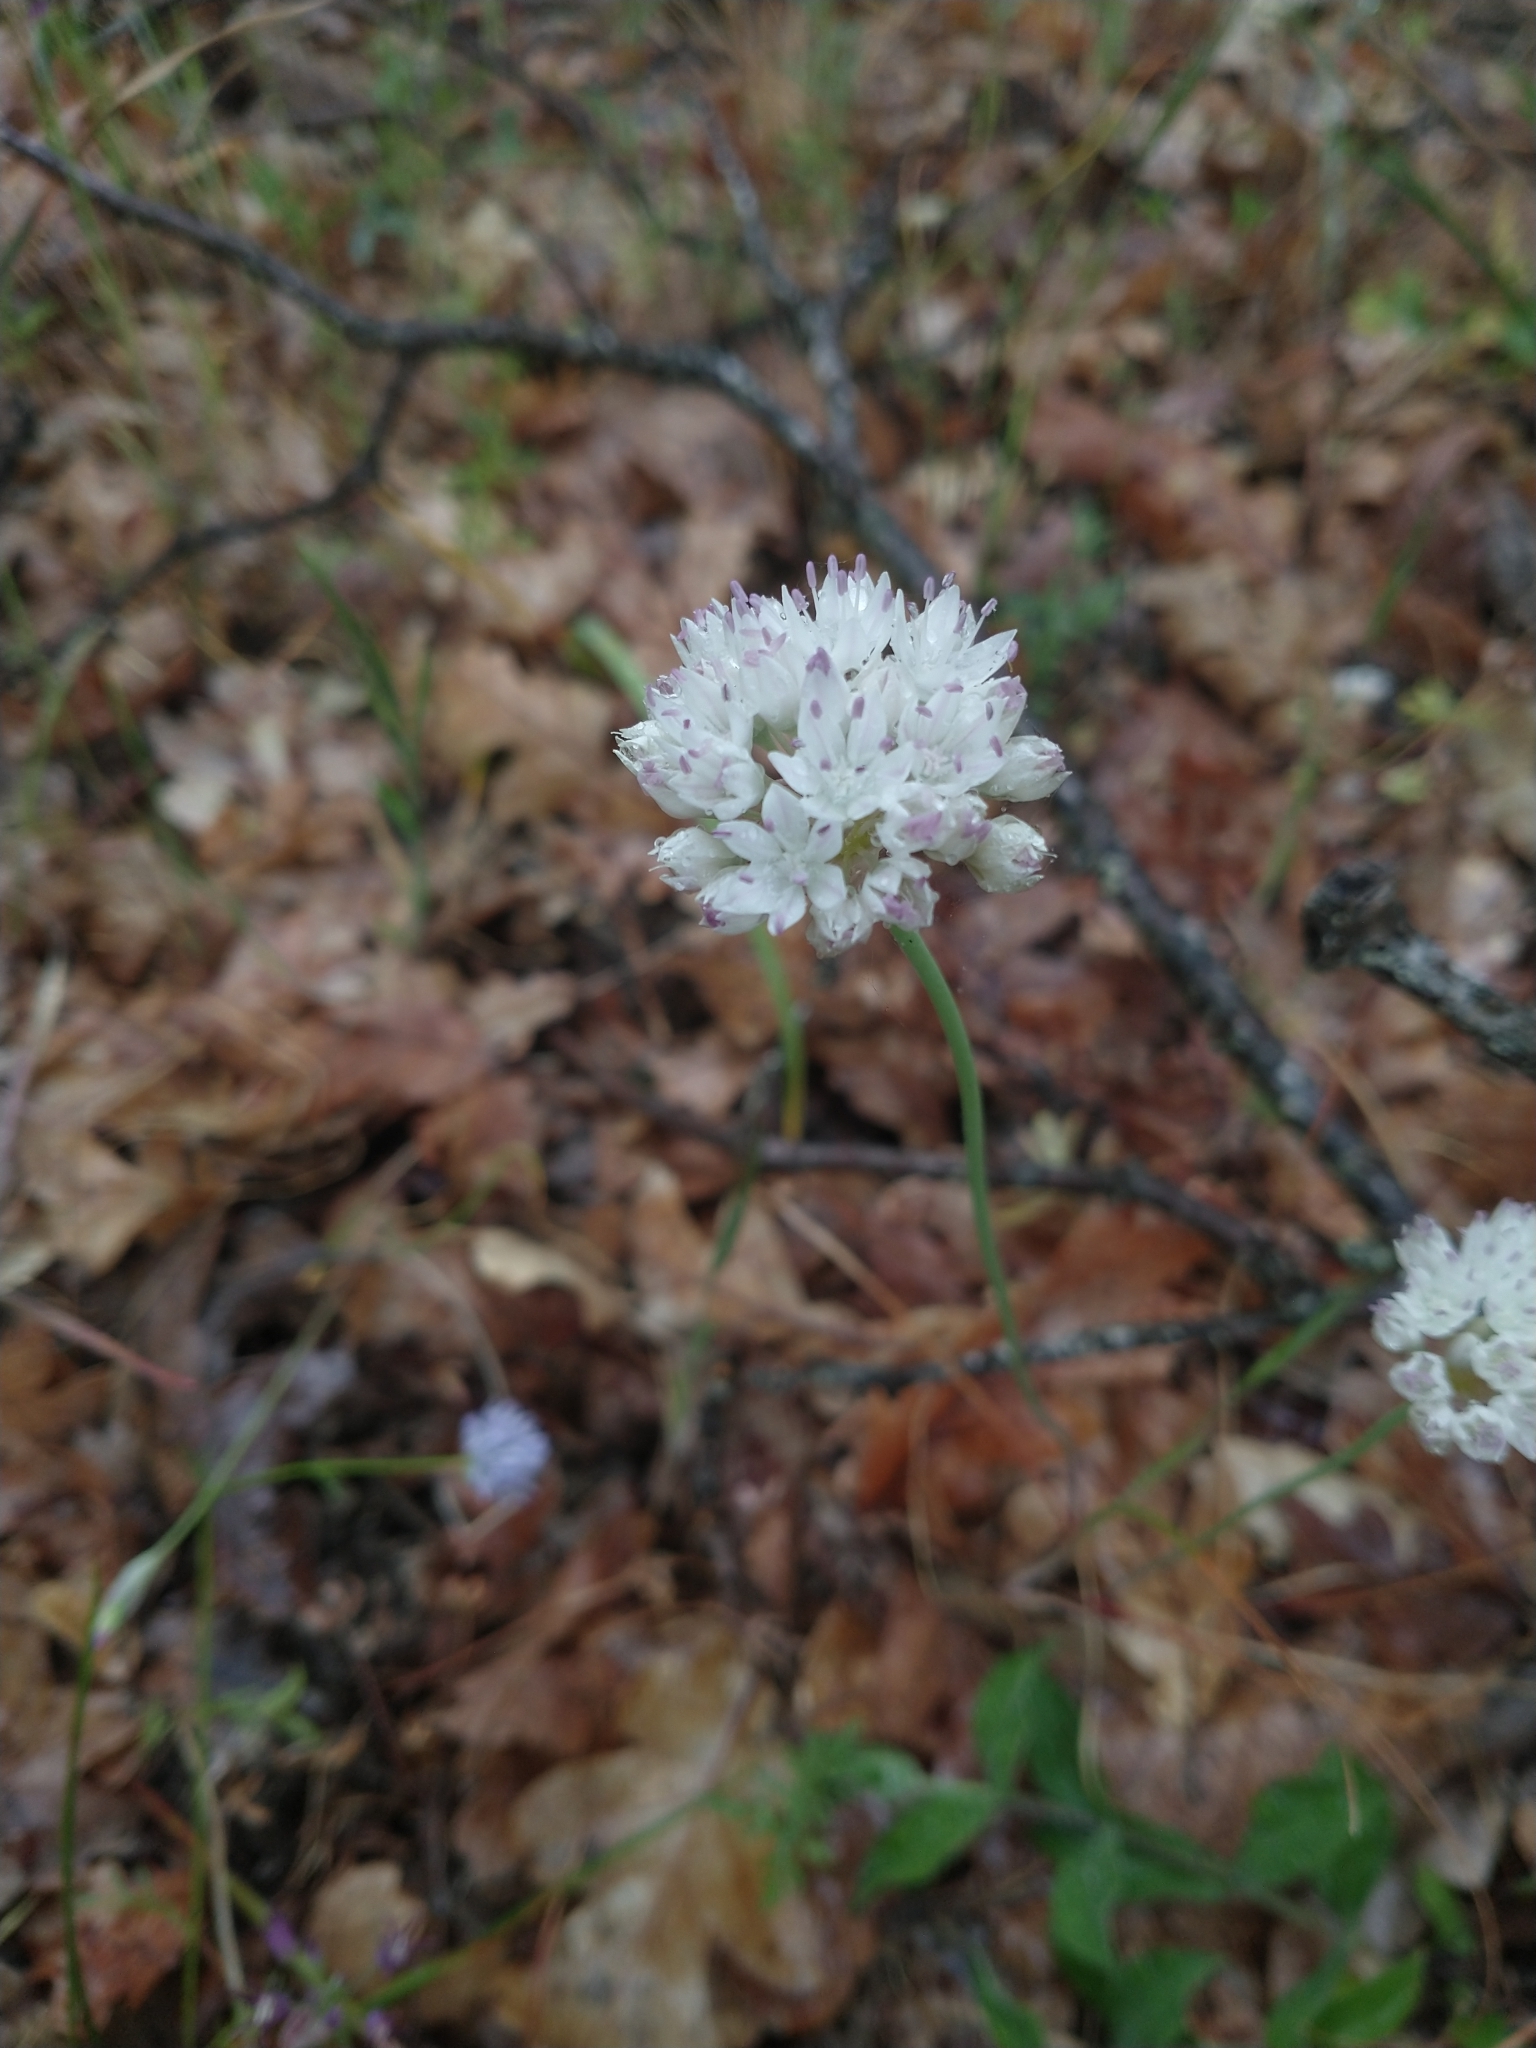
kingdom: Plantae
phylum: Tracheophyta
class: Liliopsida
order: Asparagales
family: Amaryllidaceae
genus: Allium
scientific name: Allium amplectens
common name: Narrow-leaved onion
